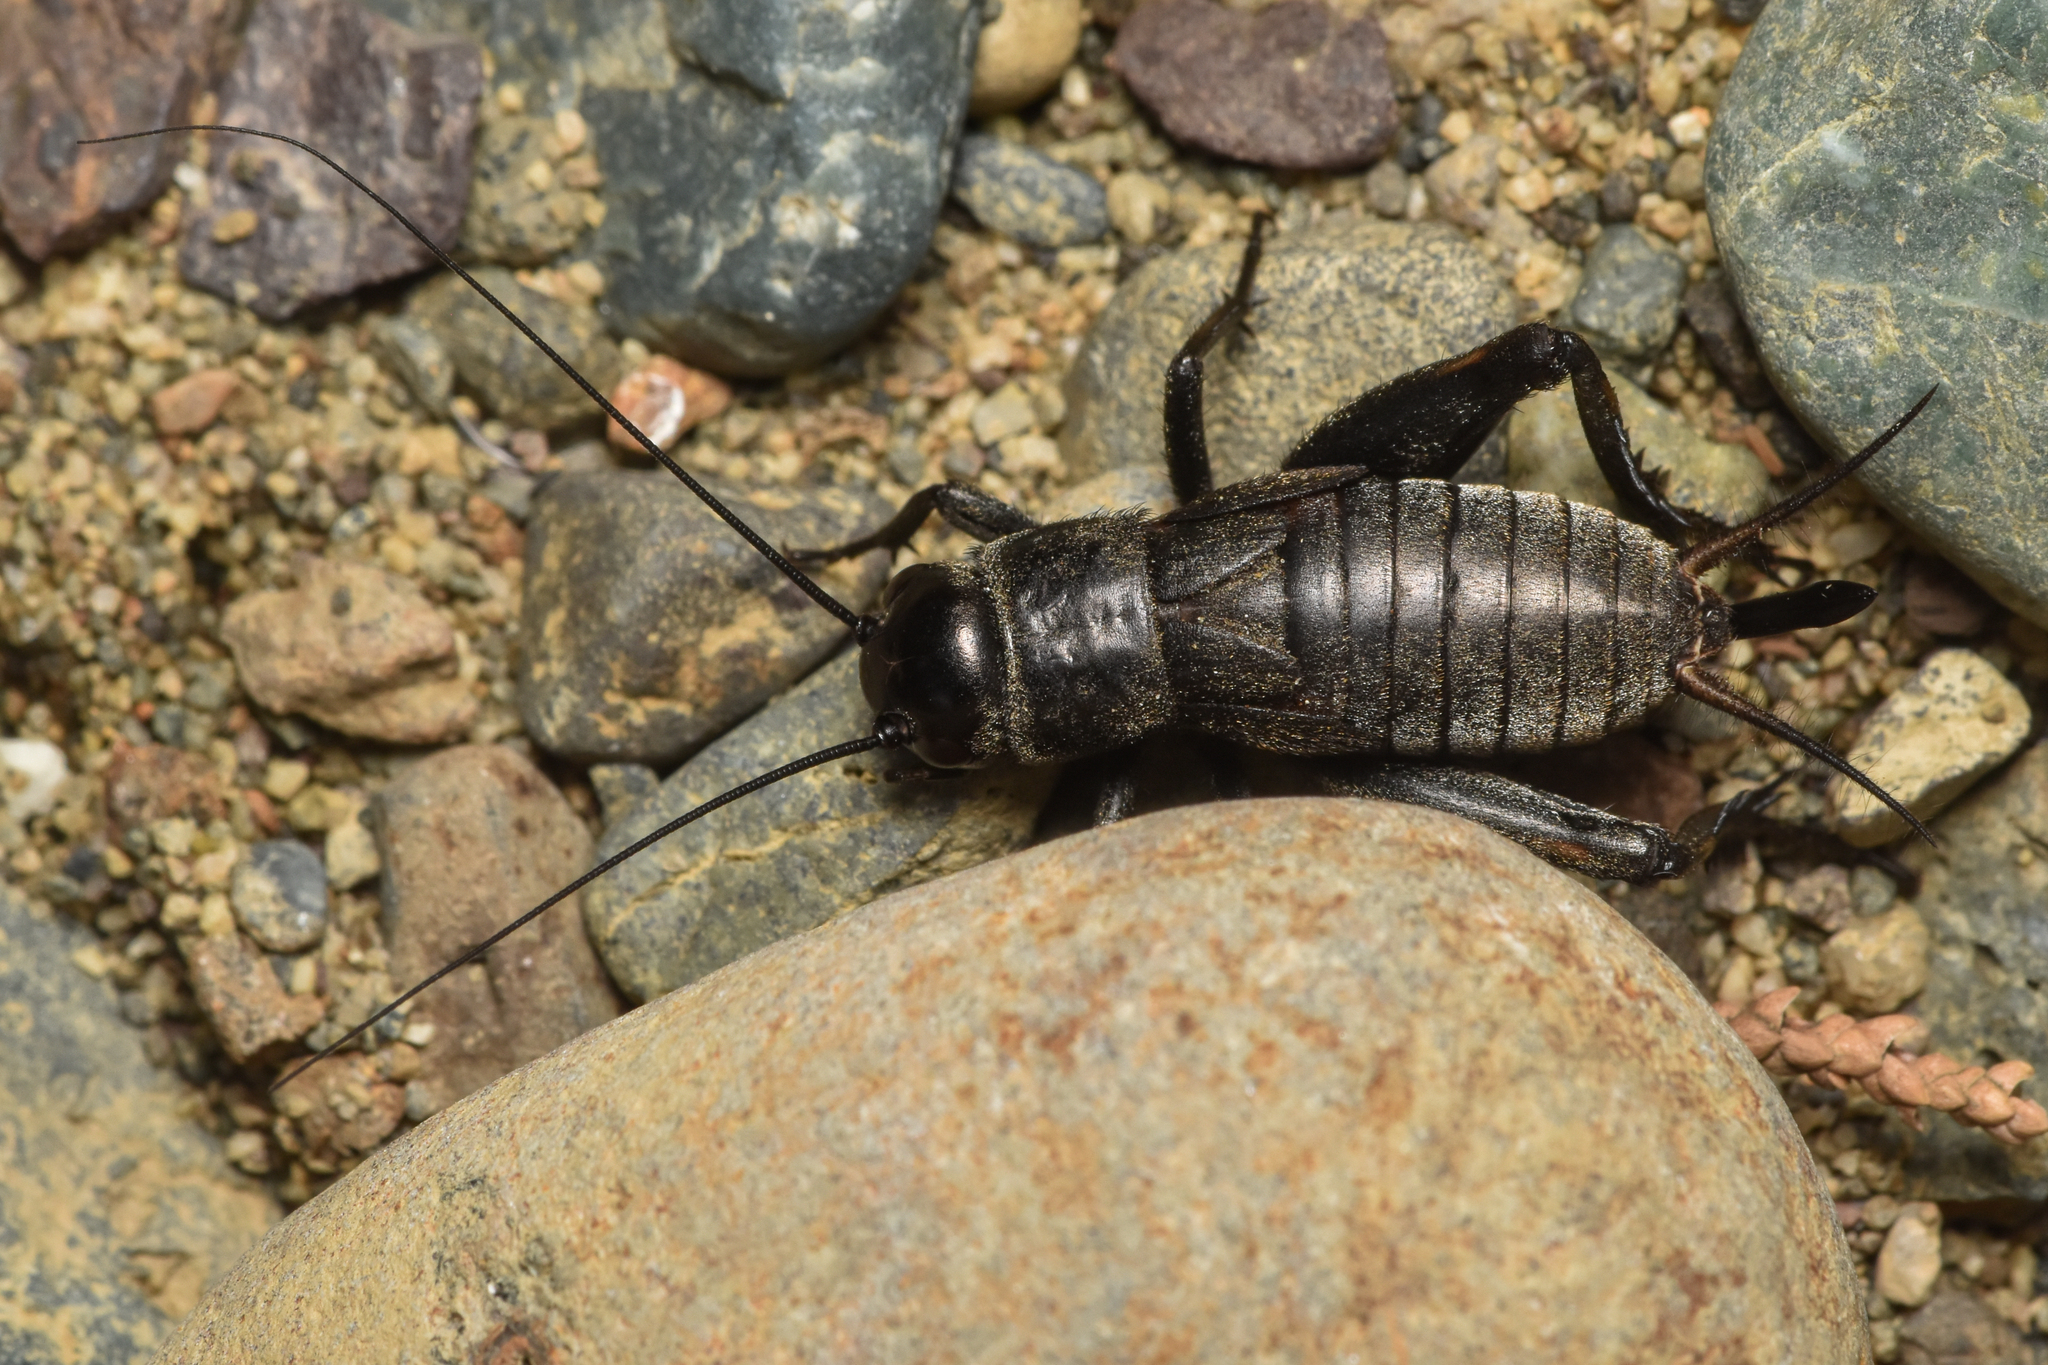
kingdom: Animalia
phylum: Arthropoda
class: Insecta
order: Orthoptera
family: Gryllidae
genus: Gryllus
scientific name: Gryllus veletis
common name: Spring field cricket
